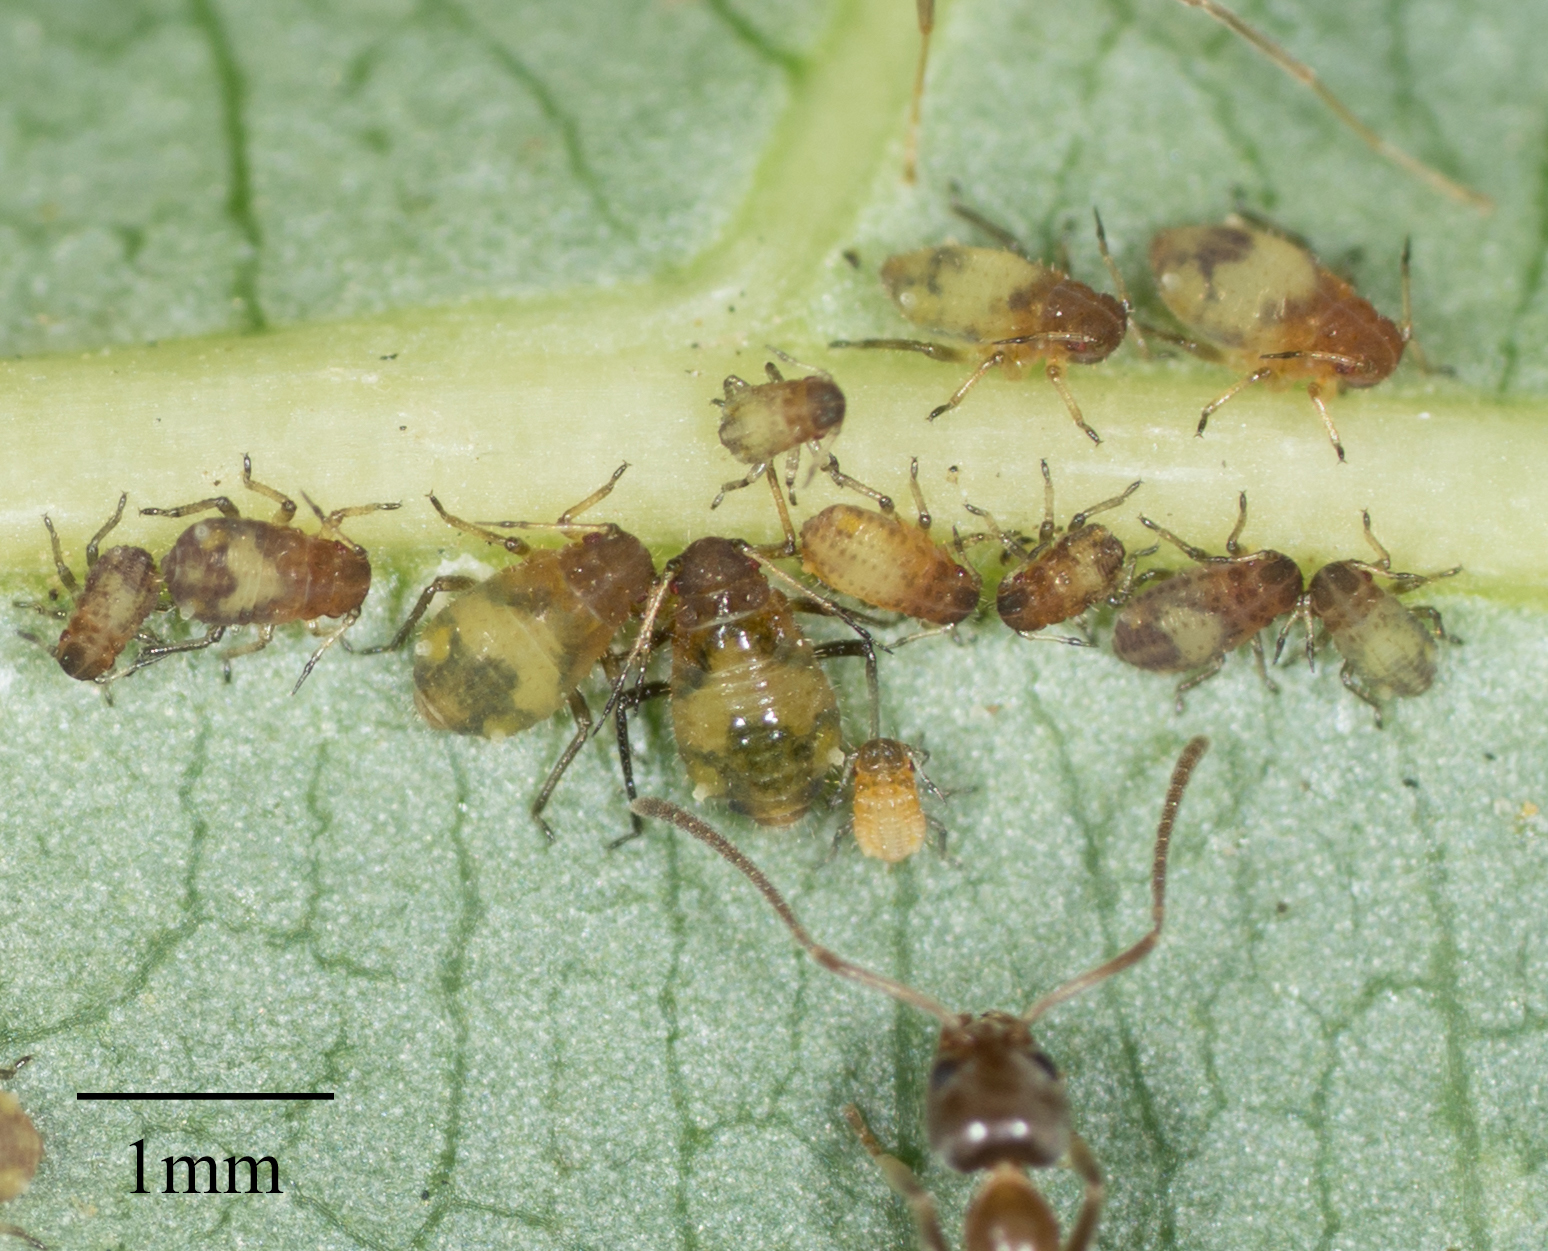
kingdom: Animalia
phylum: Arthropoda
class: Insecta
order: Hemiptera
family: Aphididae
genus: Chaitophorus
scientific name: Chaitophorus populicola
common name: Smokywinged poplar aphid
